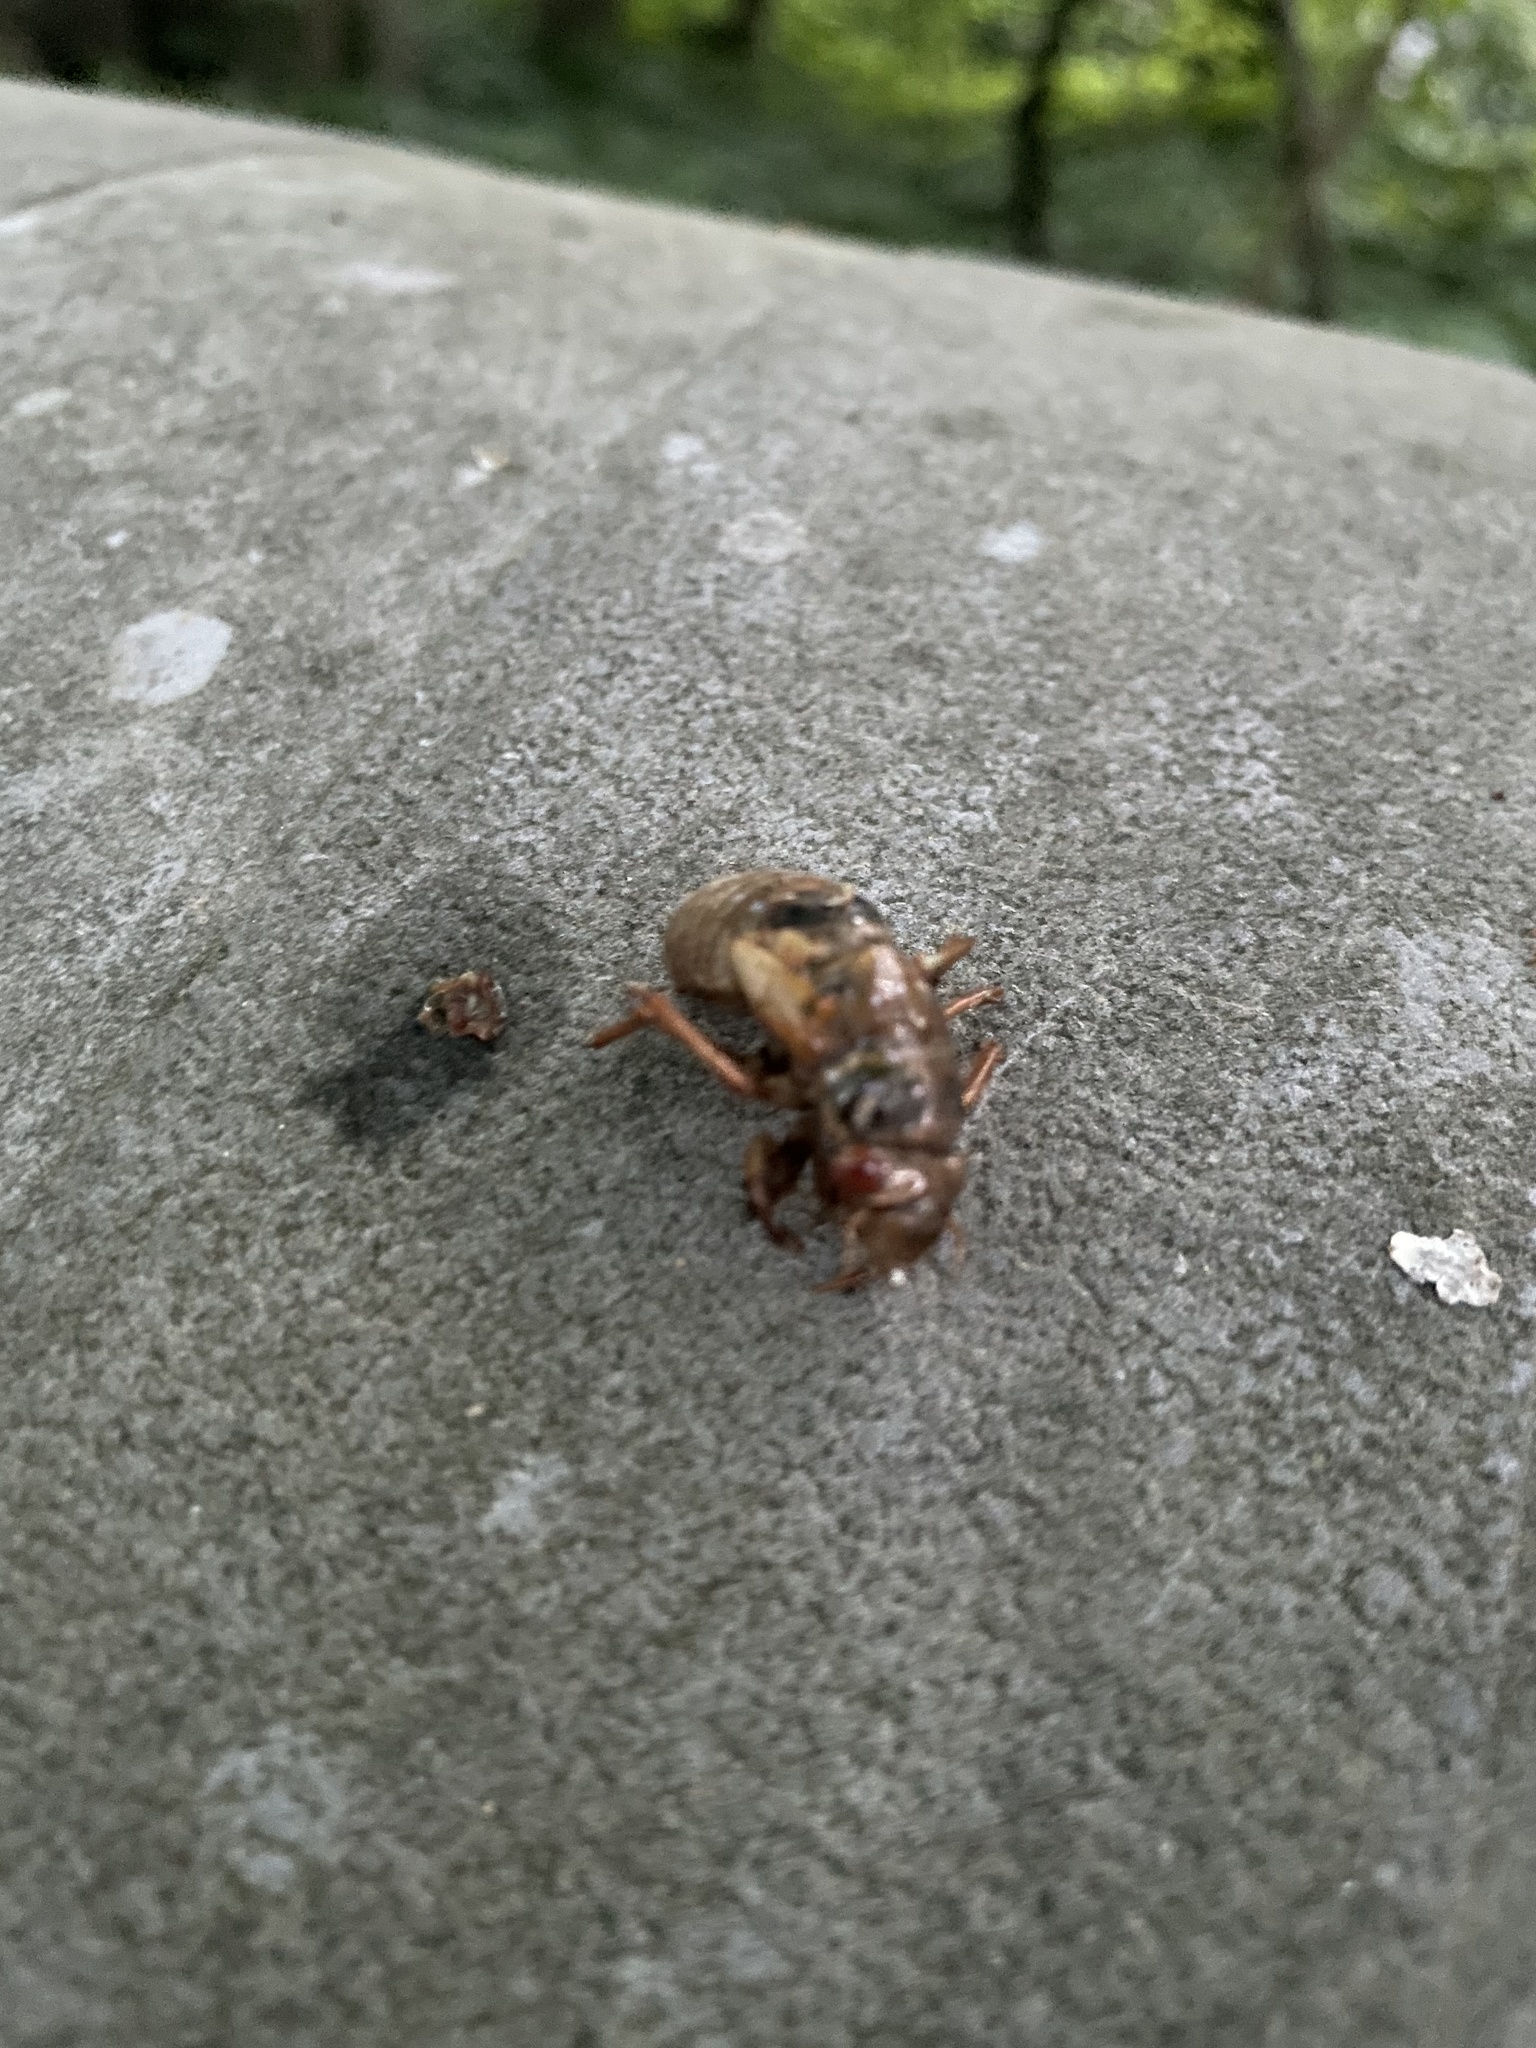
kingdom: Animalia
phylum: Arthropoda
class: Insecta
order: Hemiptera
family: Cicadidae
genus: Magicicada
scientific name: Magicicada
